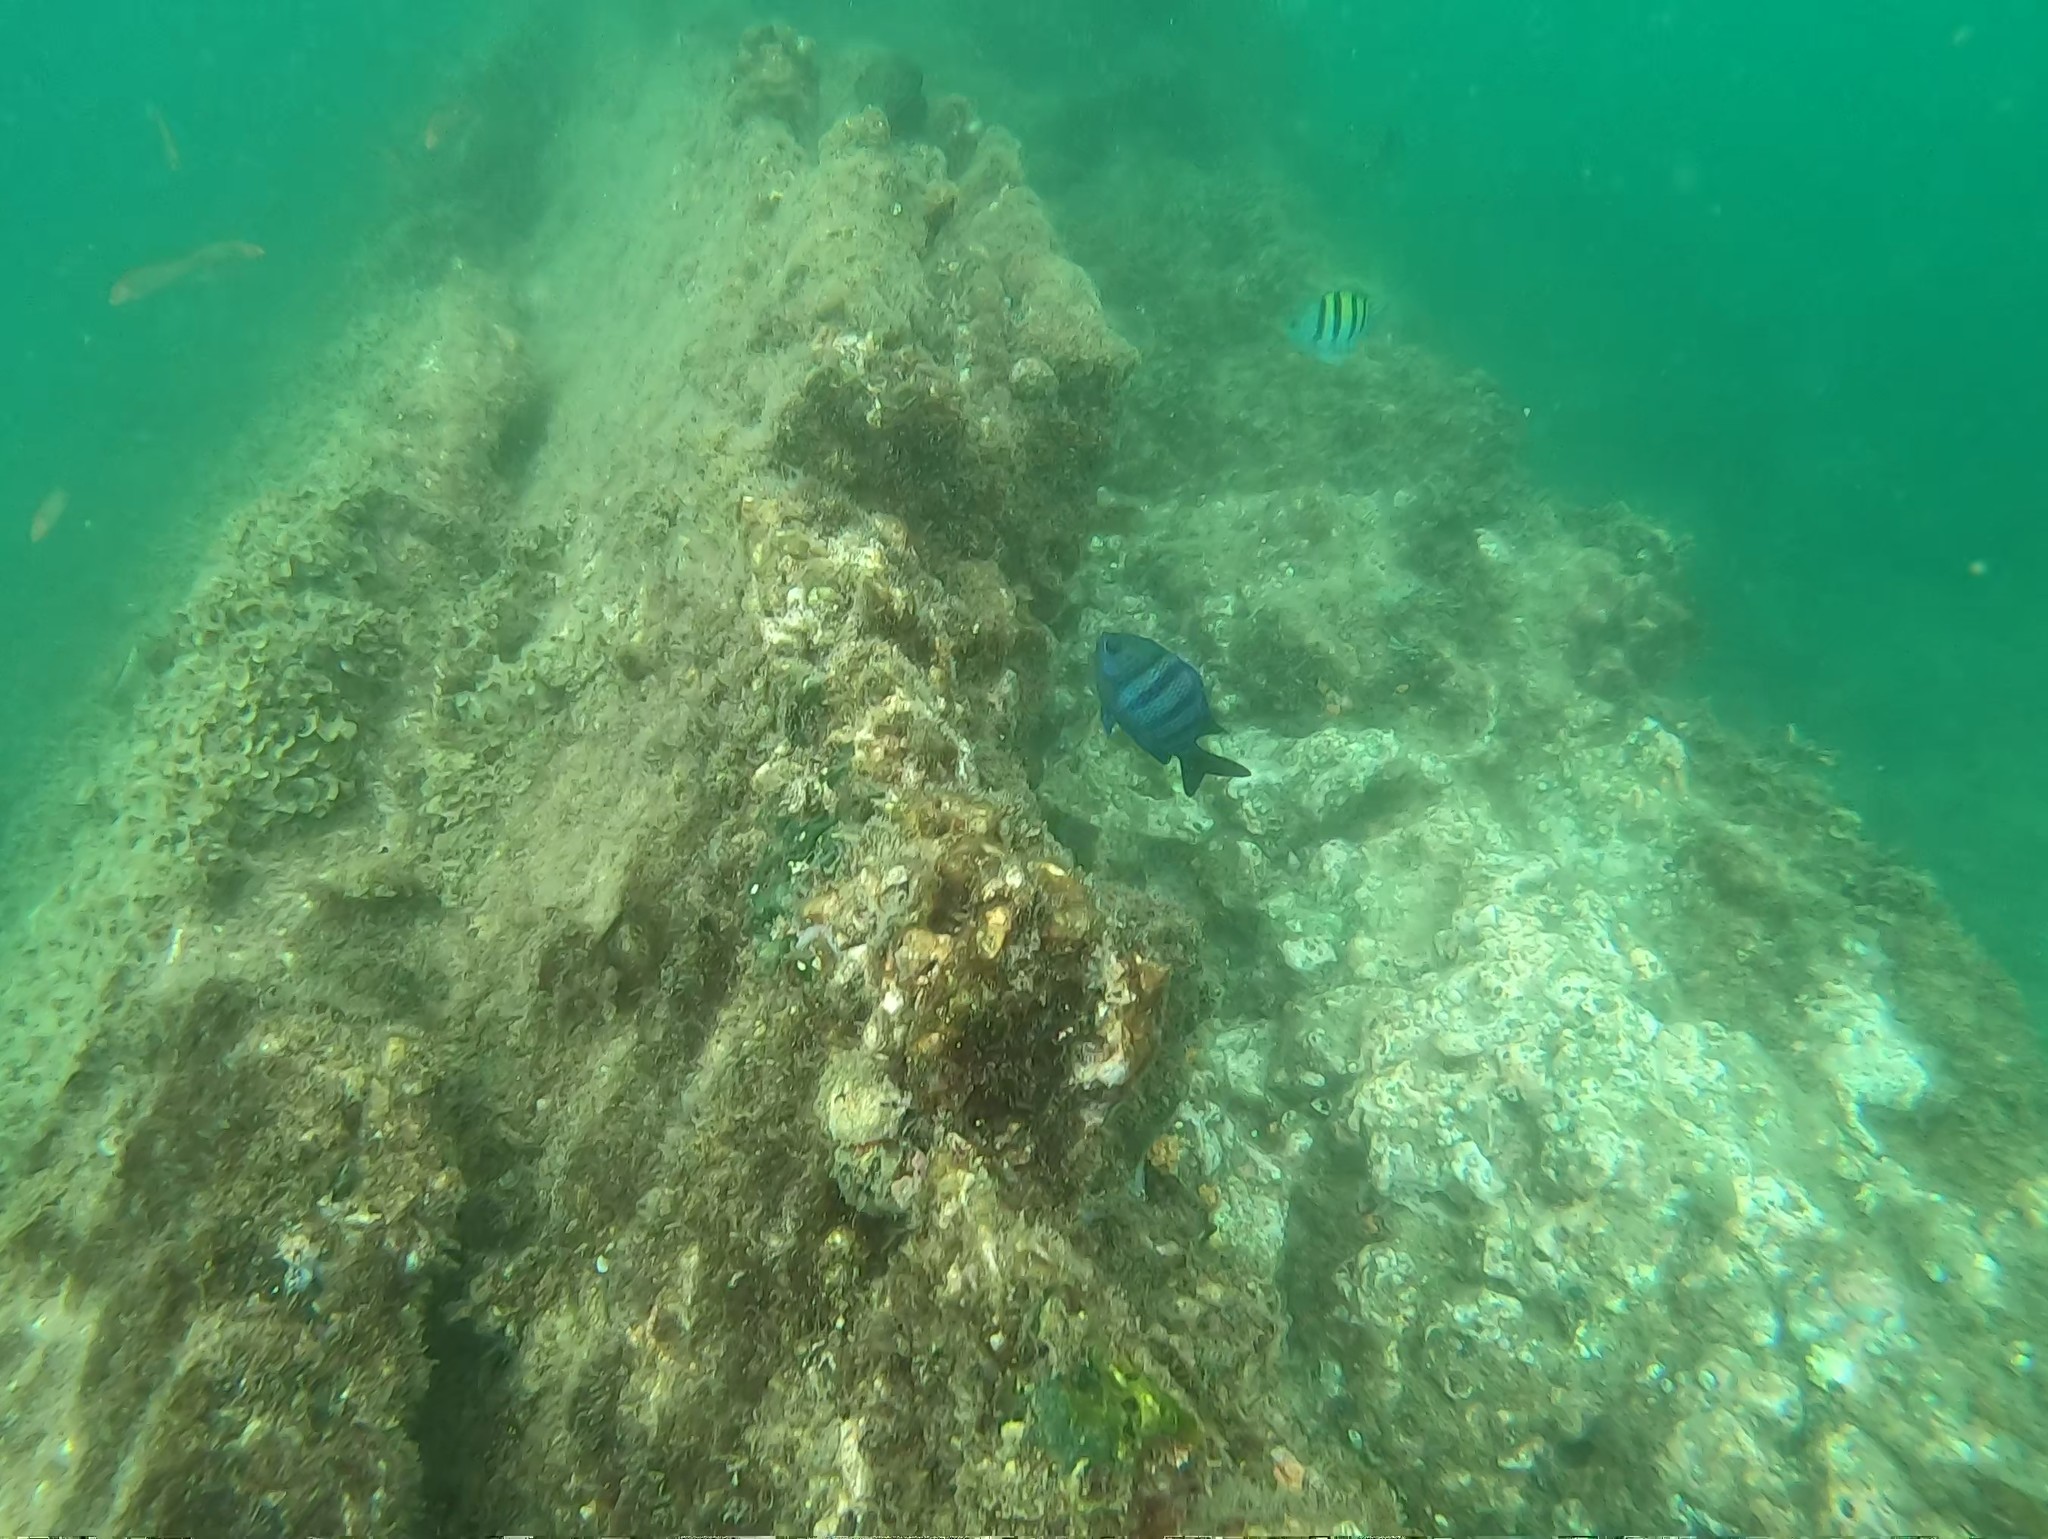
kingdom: Animalia
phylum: Chordata
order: Perciformes
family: Pomacentridae
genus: Abudefduf
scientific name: Abudefduf troschelii
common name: Panamic sergeant major
